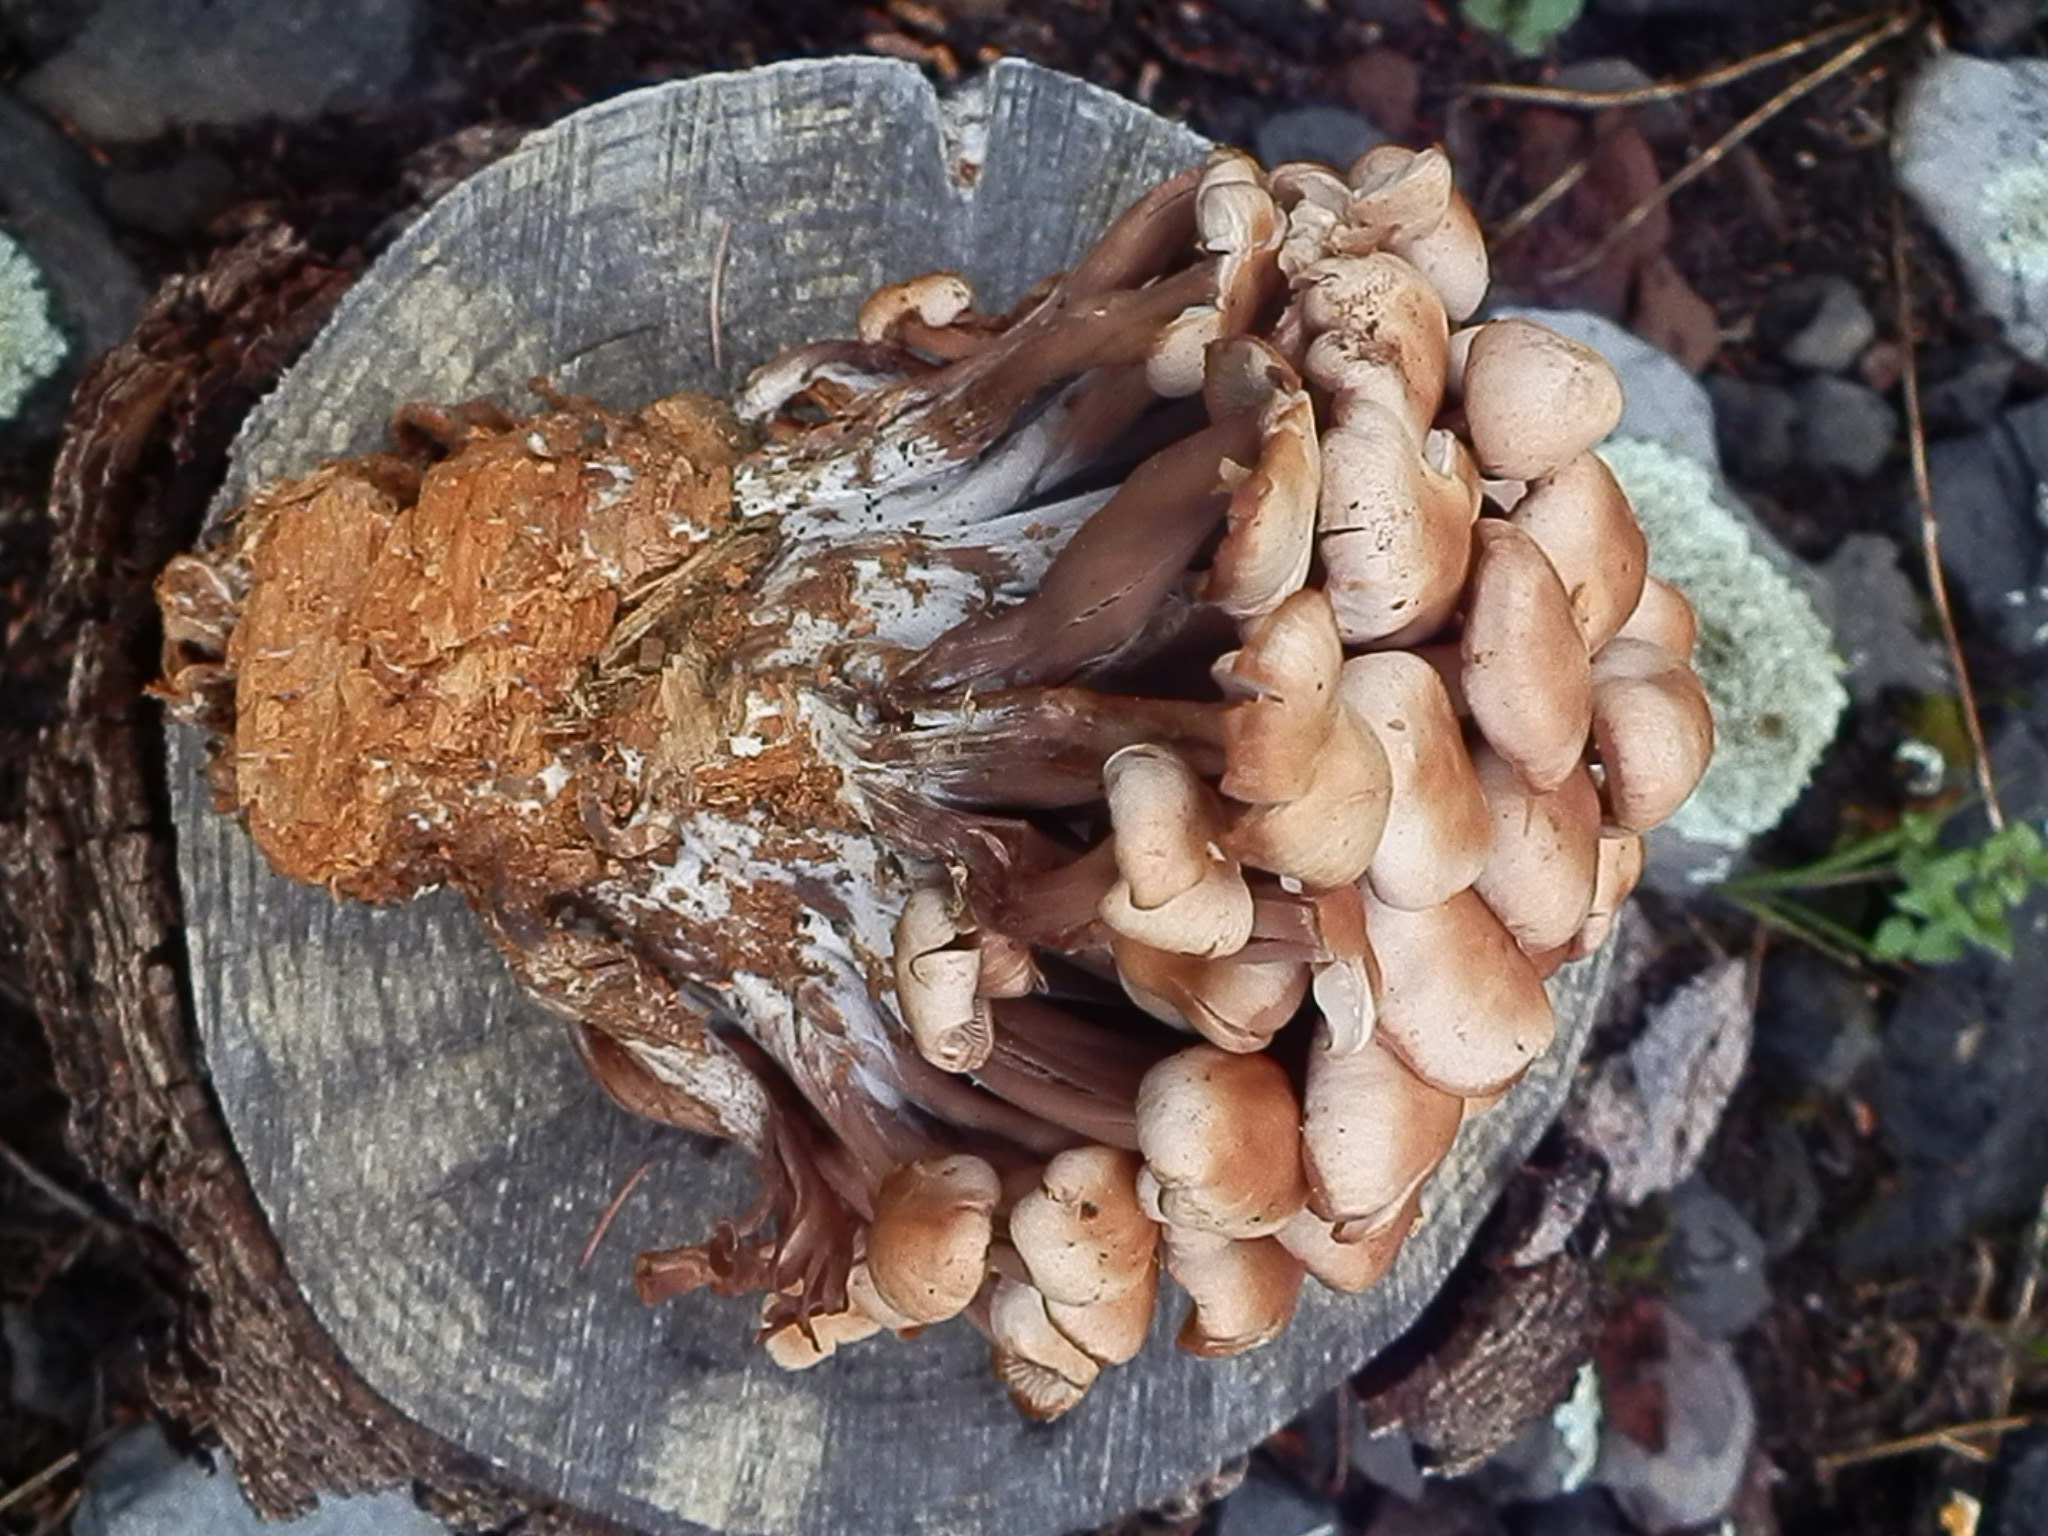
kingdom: Fungi
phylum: Basidiomycota
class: Agaricomycetes
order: Agaricales
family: Omphalotaceae
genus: Connopus
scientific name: Connopus acervatus
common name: Cluster cap
